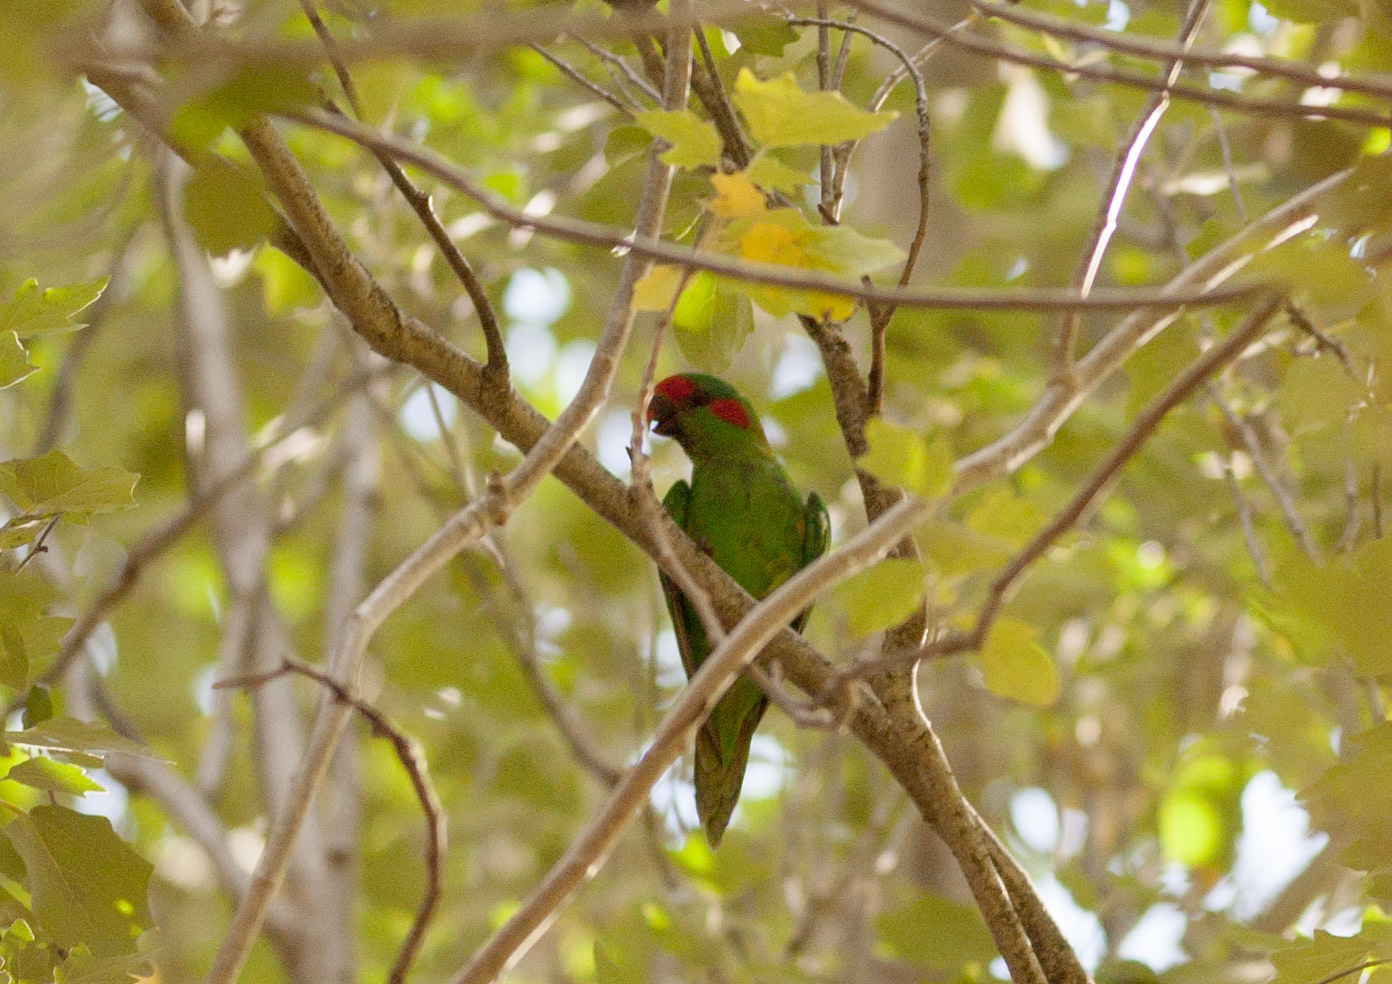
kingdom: Animalia
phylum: Chordata
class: Aves
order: Psittaciformes
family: Psittacidae
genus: Glossopsitta
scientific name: Glossopsitta concinna
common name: Musk lorikeet
